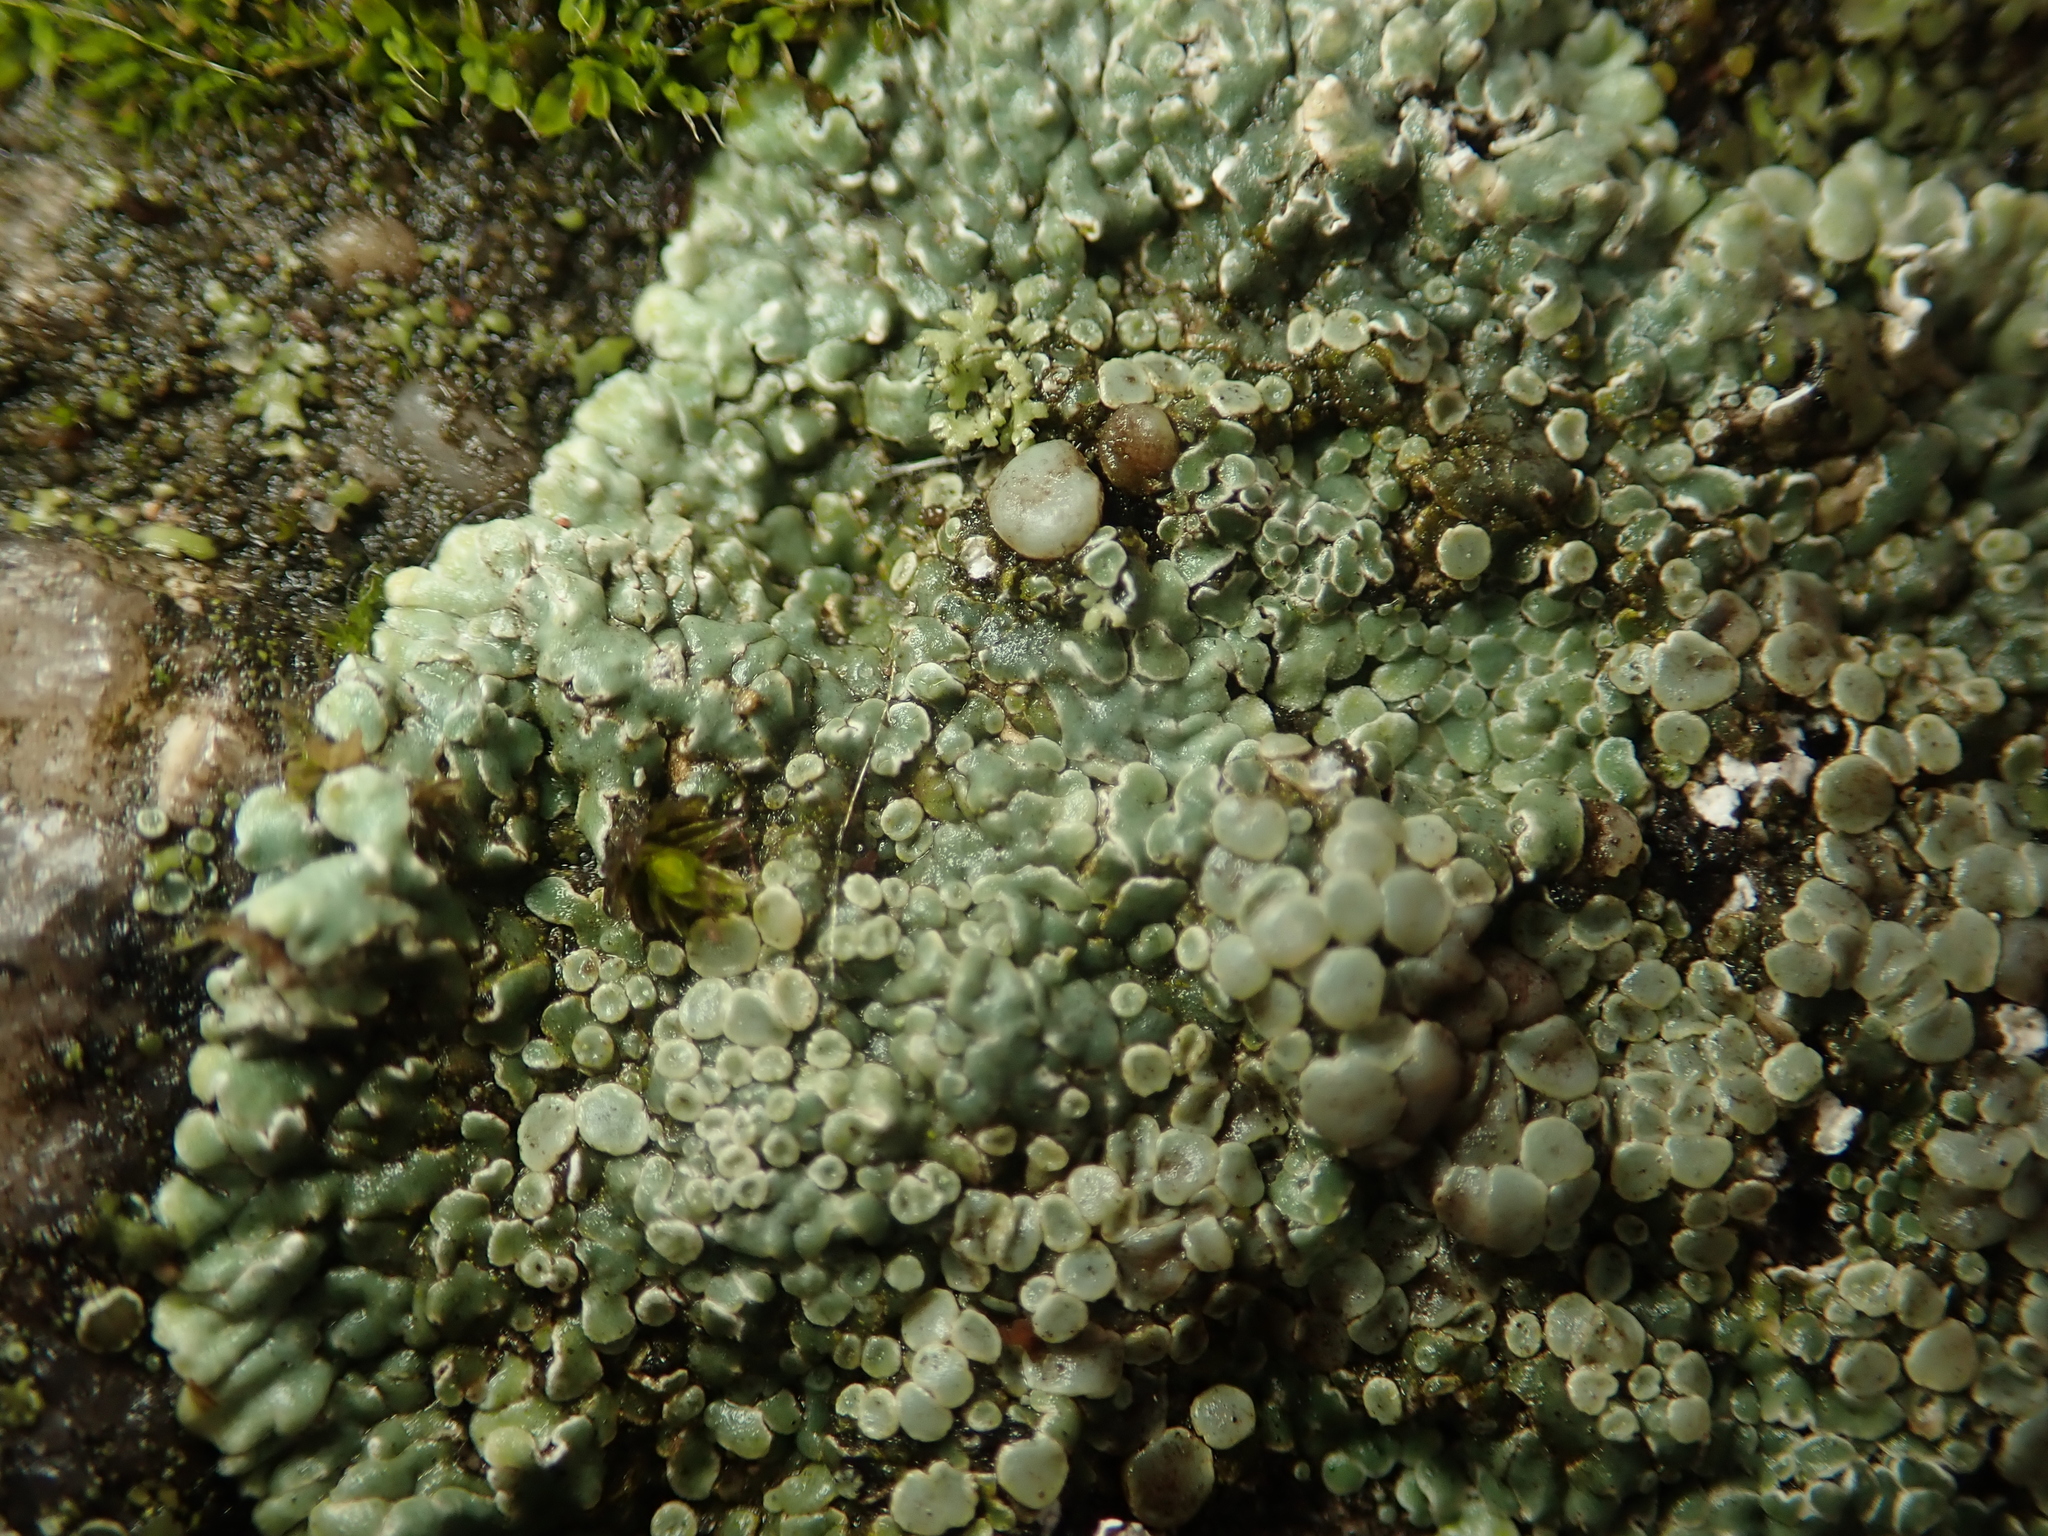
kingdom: Fungi
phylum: Ascomycota
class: Lecanoromycetes
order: Lecanorales
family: Lecanoraceae
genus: Protoparmeliopsis
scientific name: Protoparmeliopsis muralis
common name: Stonewall rim lichen
